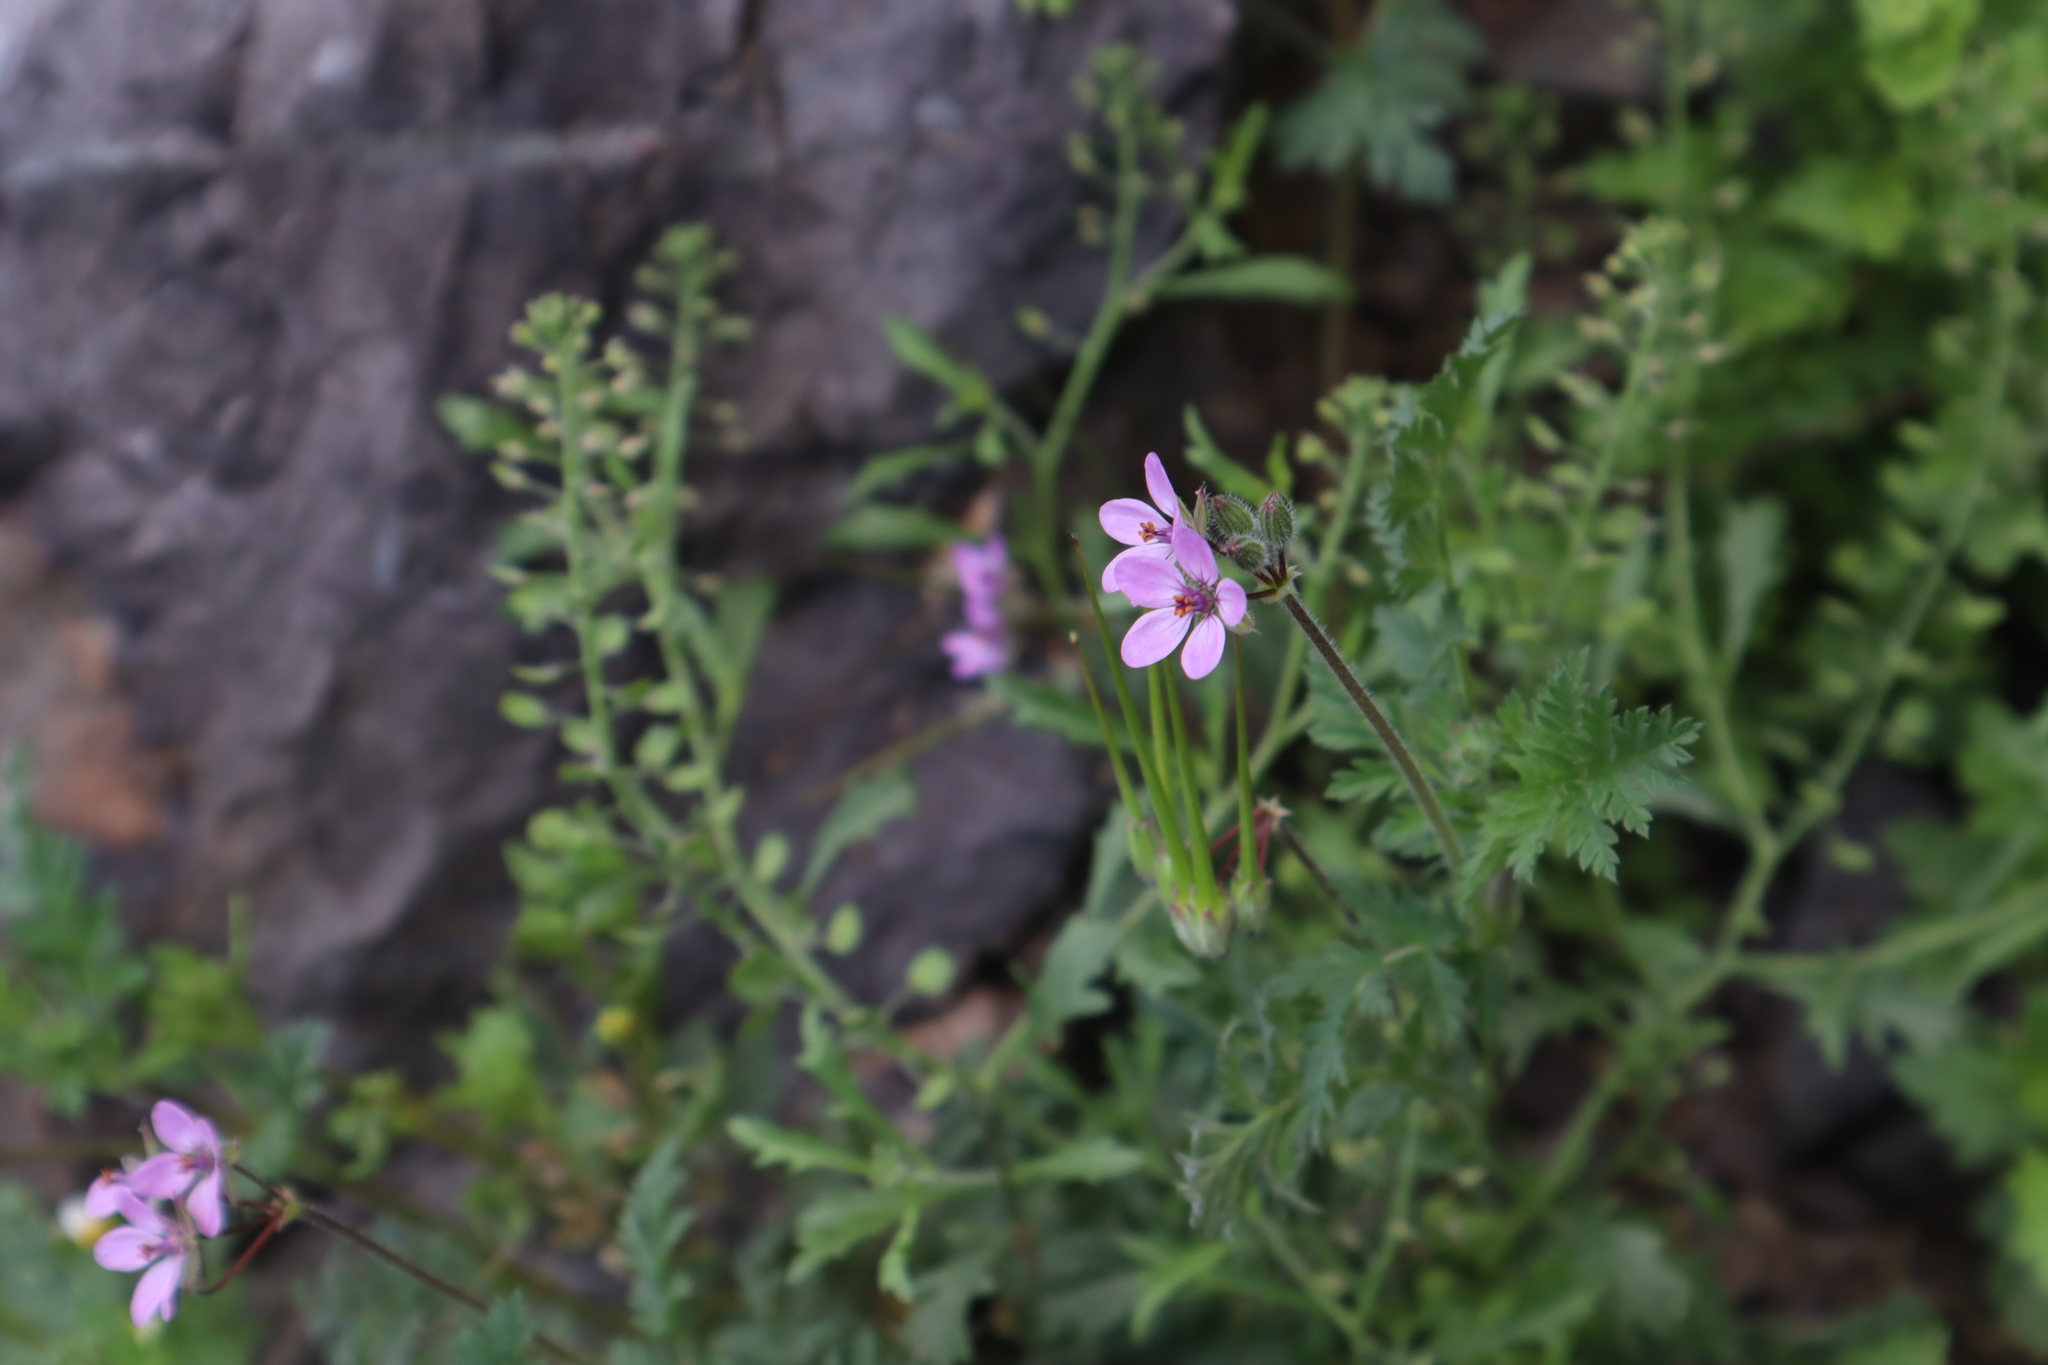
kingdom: Plantae
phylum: Tracheophyta
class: Magnoliopsida
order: Geraniales
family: Geraniaceae
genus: Erodium
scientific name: Erodium cicutarium
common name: Common stork's-bill
